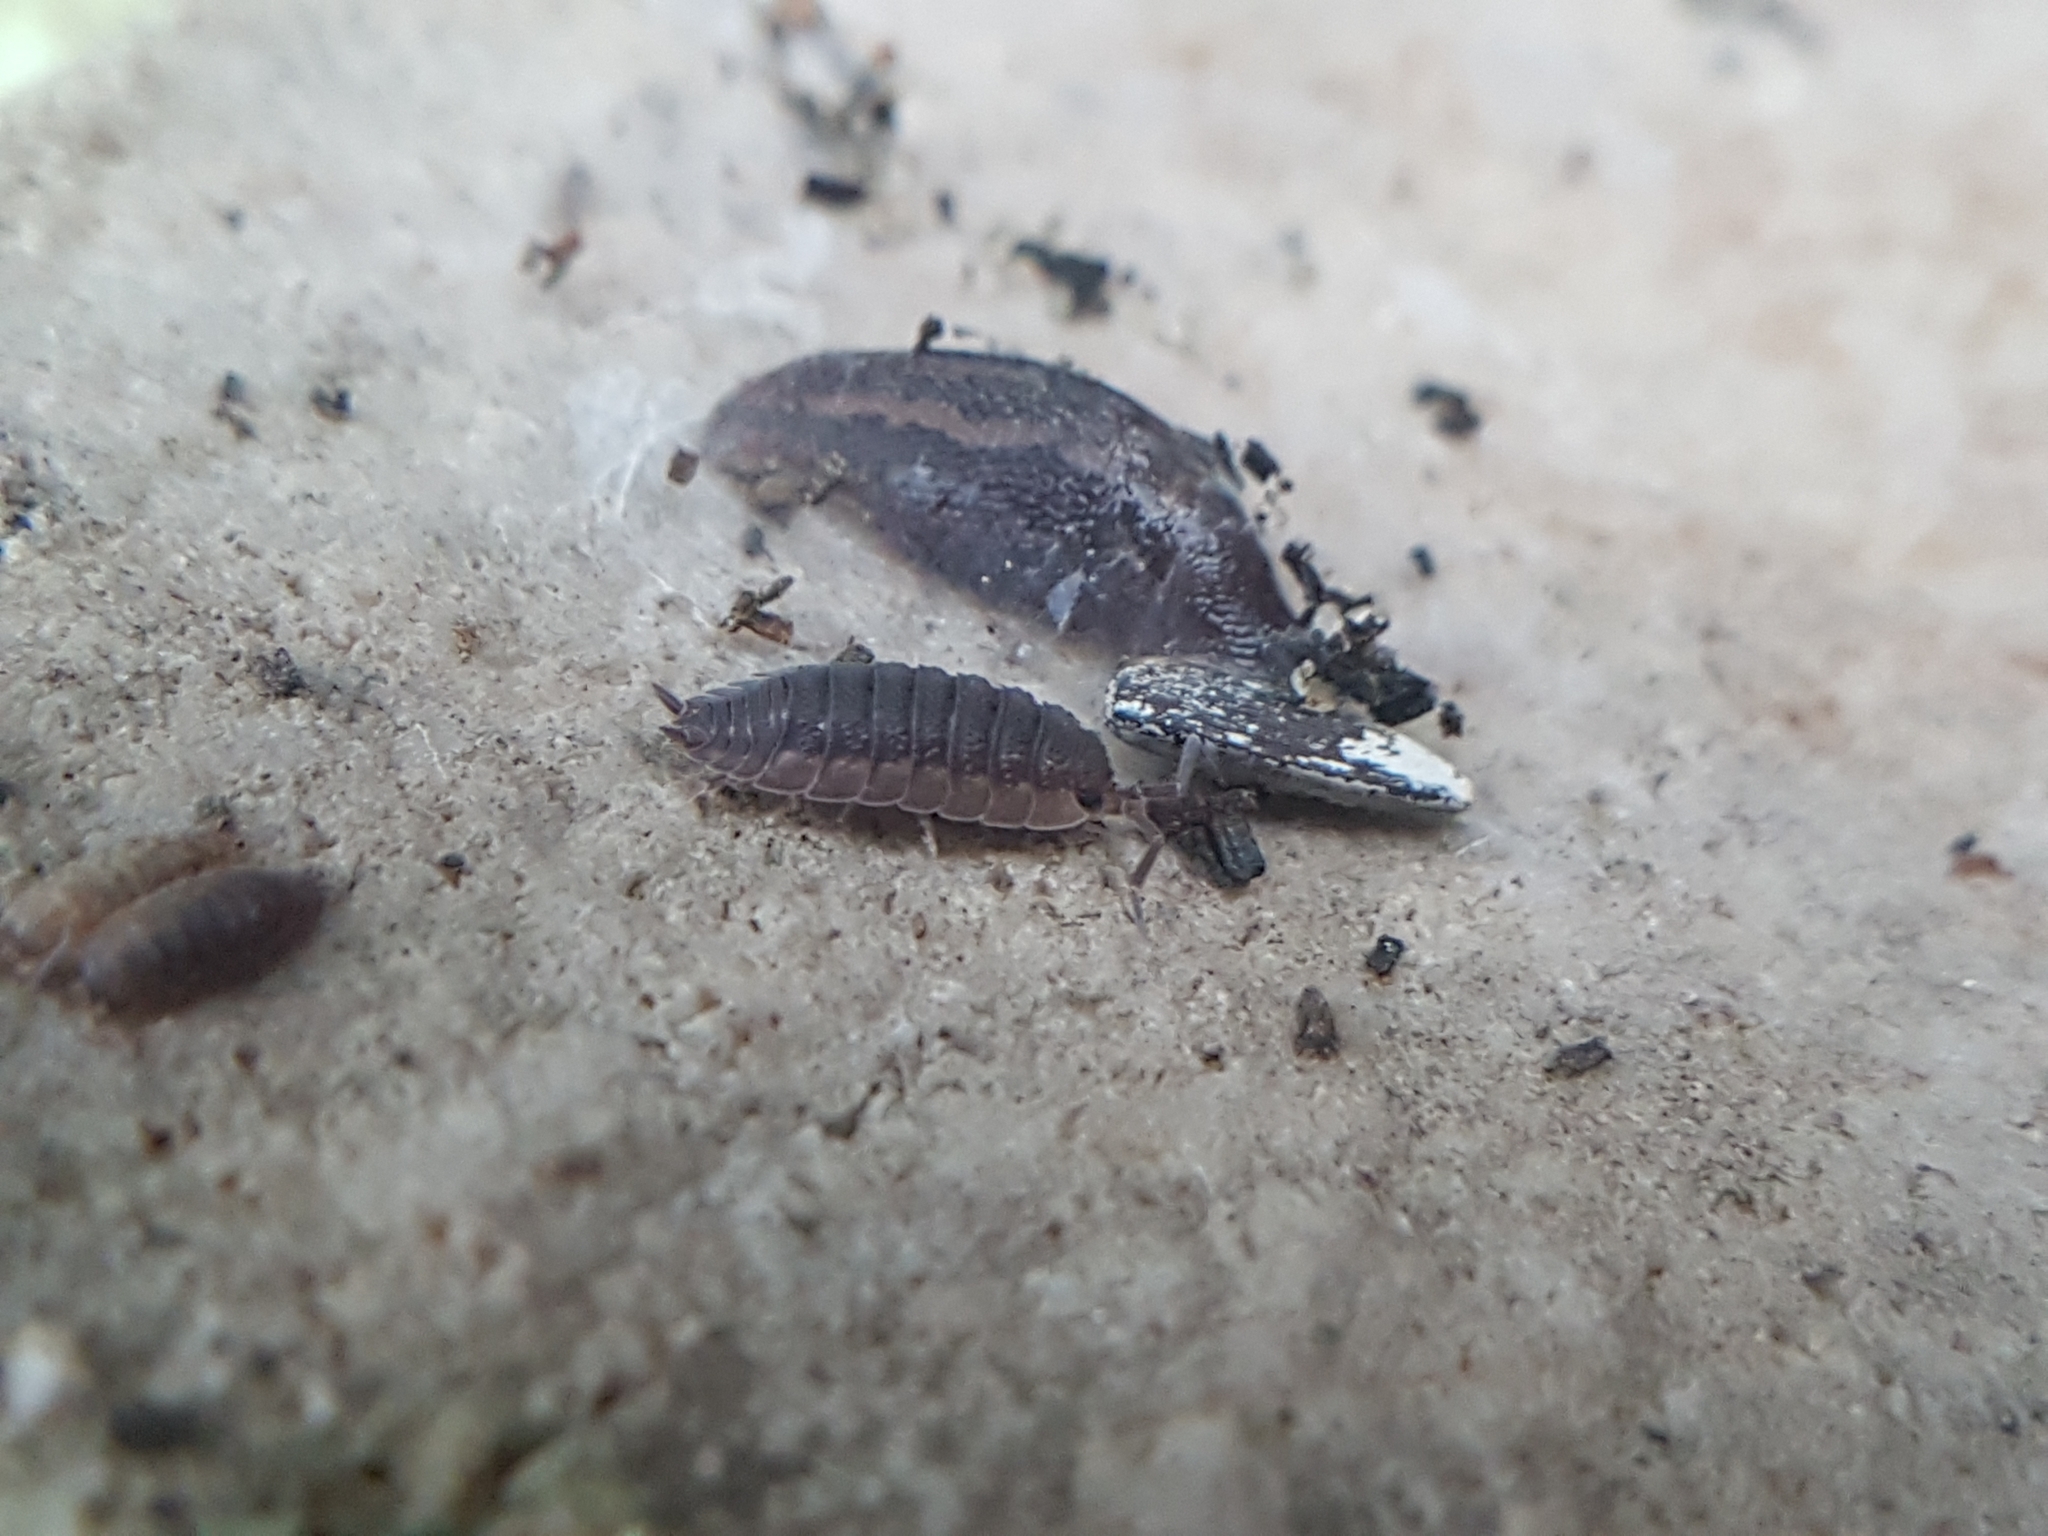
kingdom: Animalia
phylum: Arthropoda
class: Malacostraca
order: Isopoda
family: Porcellionidae
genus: Porcellio
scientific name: Porcellio scaber
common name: Common rough woodlouse
